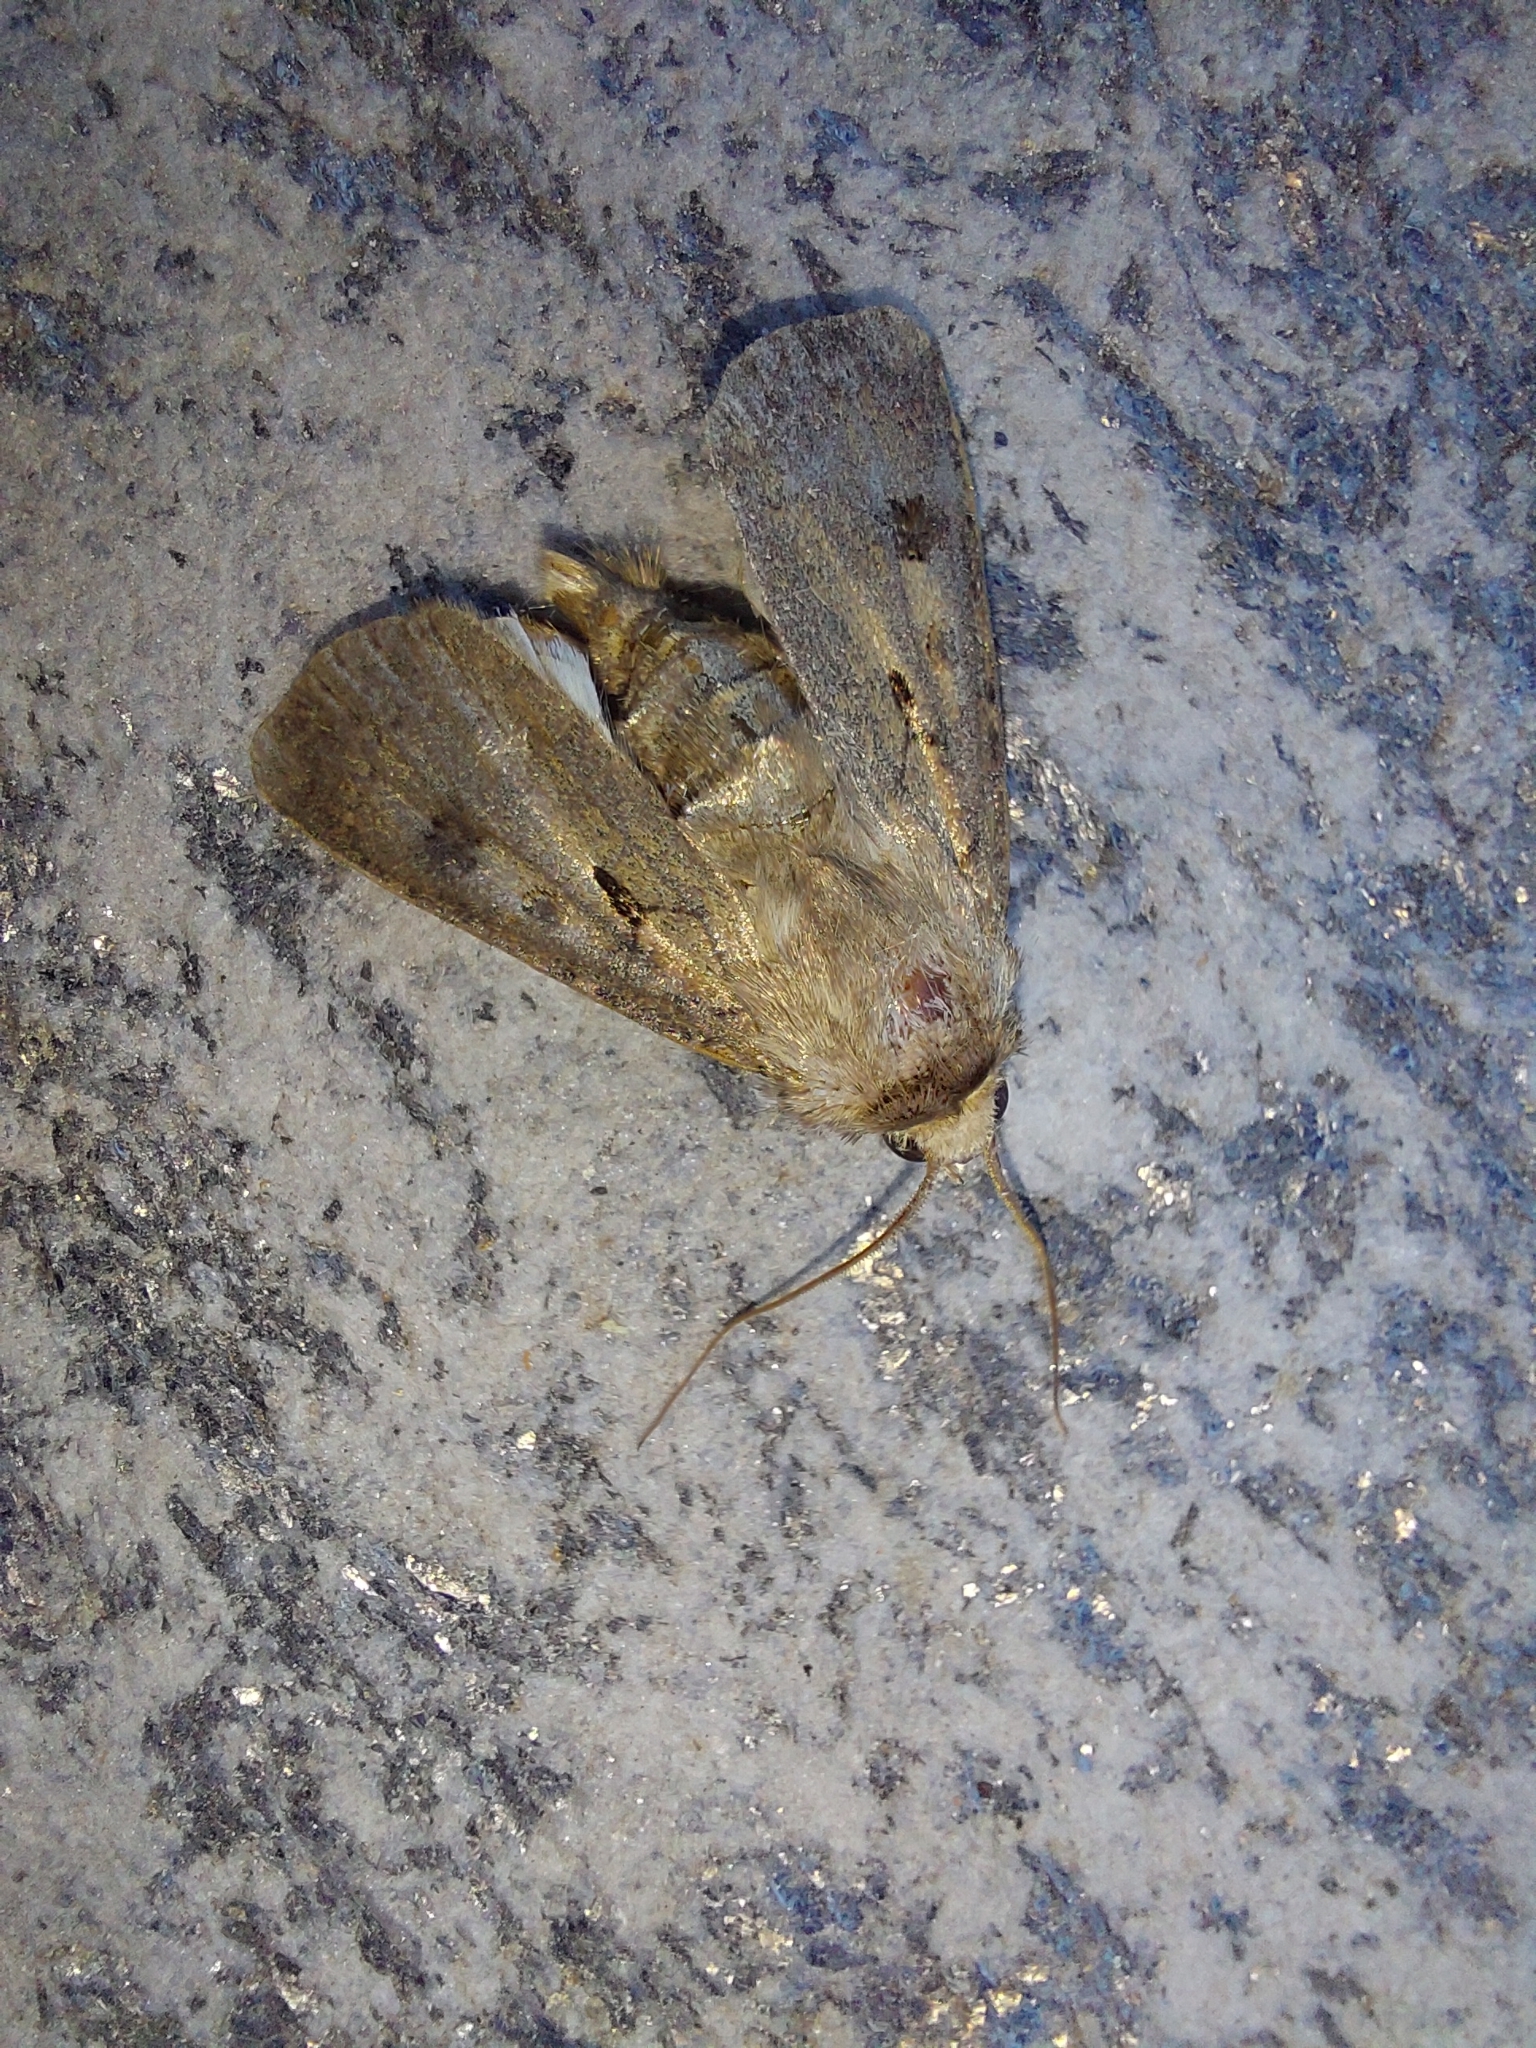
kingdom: Animalia
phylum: Arthropoda
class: Insecta
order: Lepidoptera
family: Noctuidae
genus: Agrotis
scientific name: Agrotis exclamationis
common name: Heart and dart
